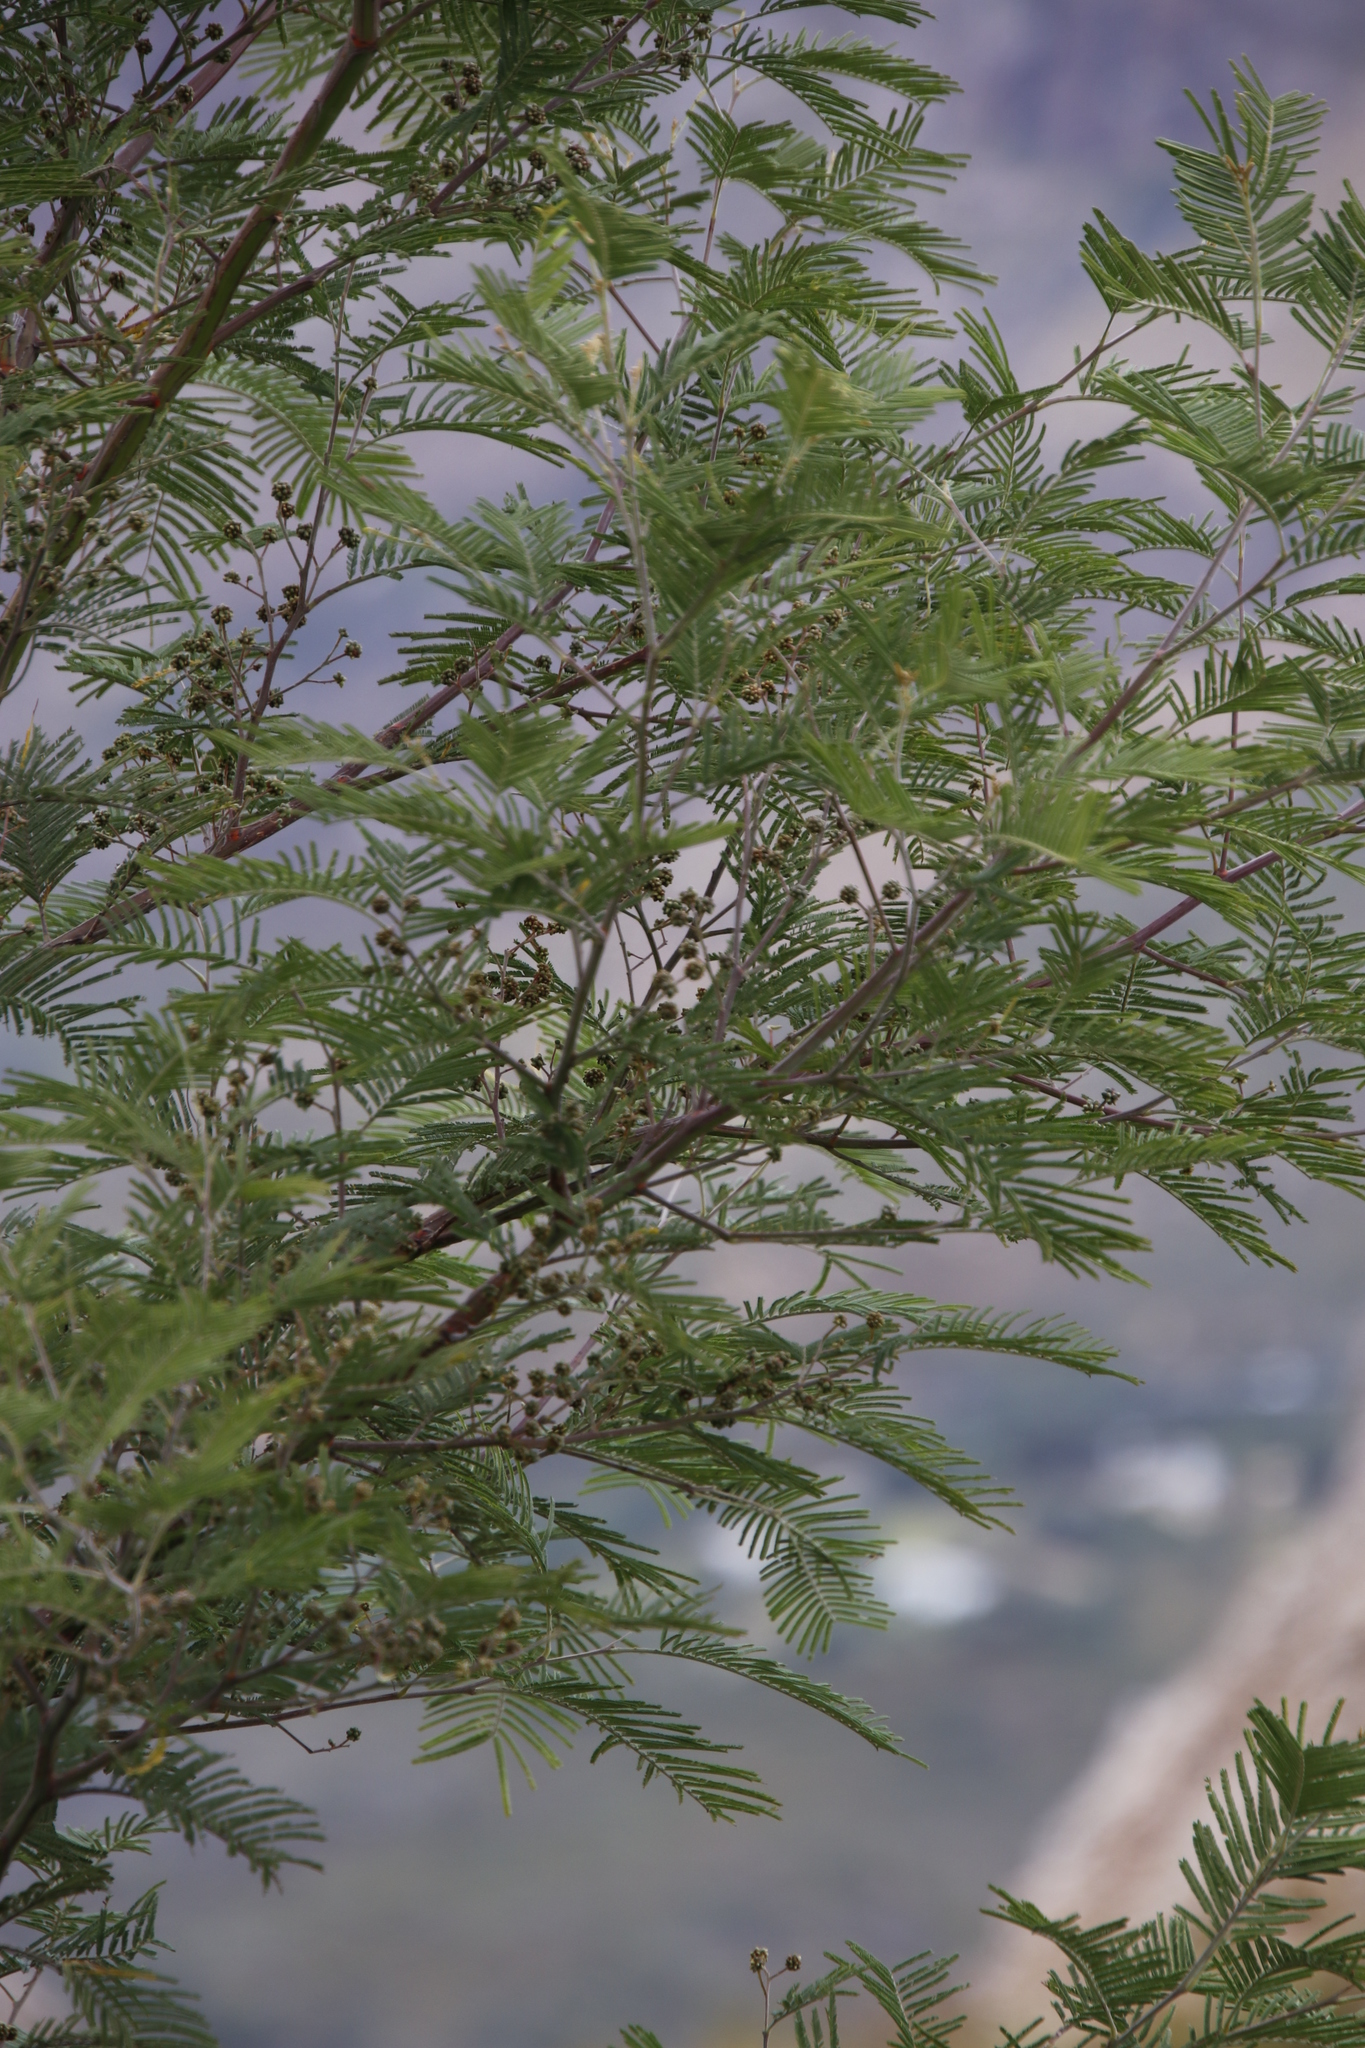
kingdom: Animalia
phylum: Arthropoda
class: Insecta
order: Diptera
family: Cecidomyiidae
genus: Dasineura
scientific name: Dasineura rubiformis
